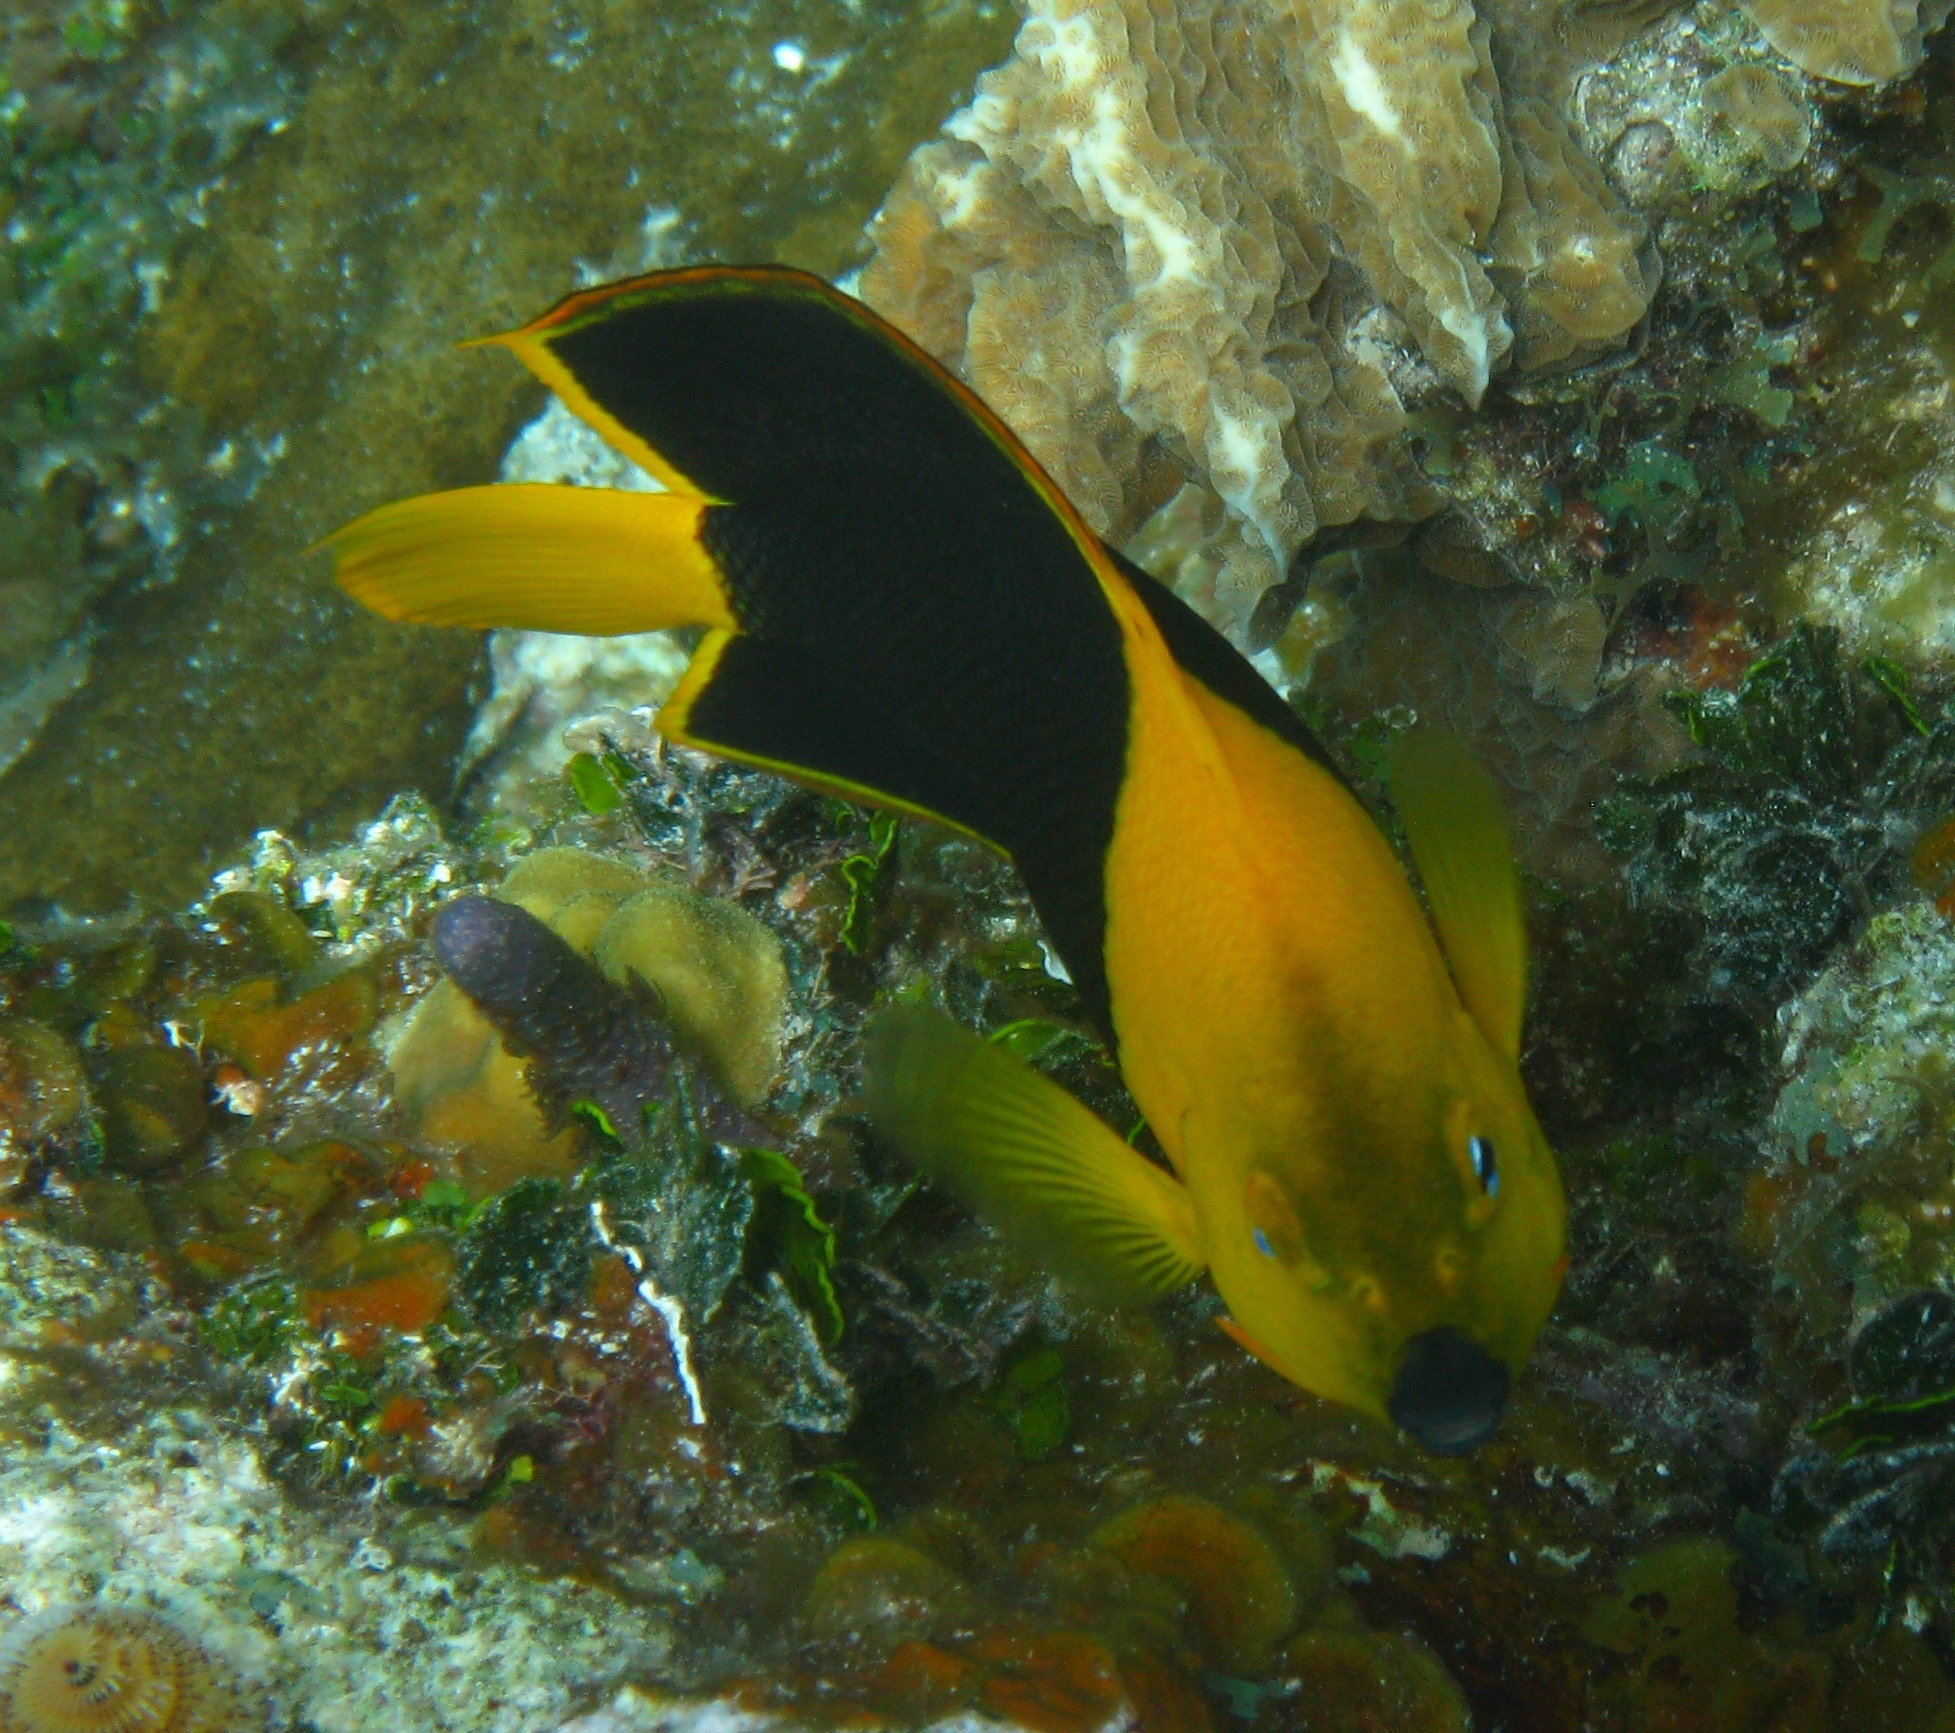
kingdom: Animalia
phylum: Chordata
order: Perciformes
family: Pomacanthidae
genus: Holacanthus
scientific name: Holacanthus tricolor
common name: Rock beauty
